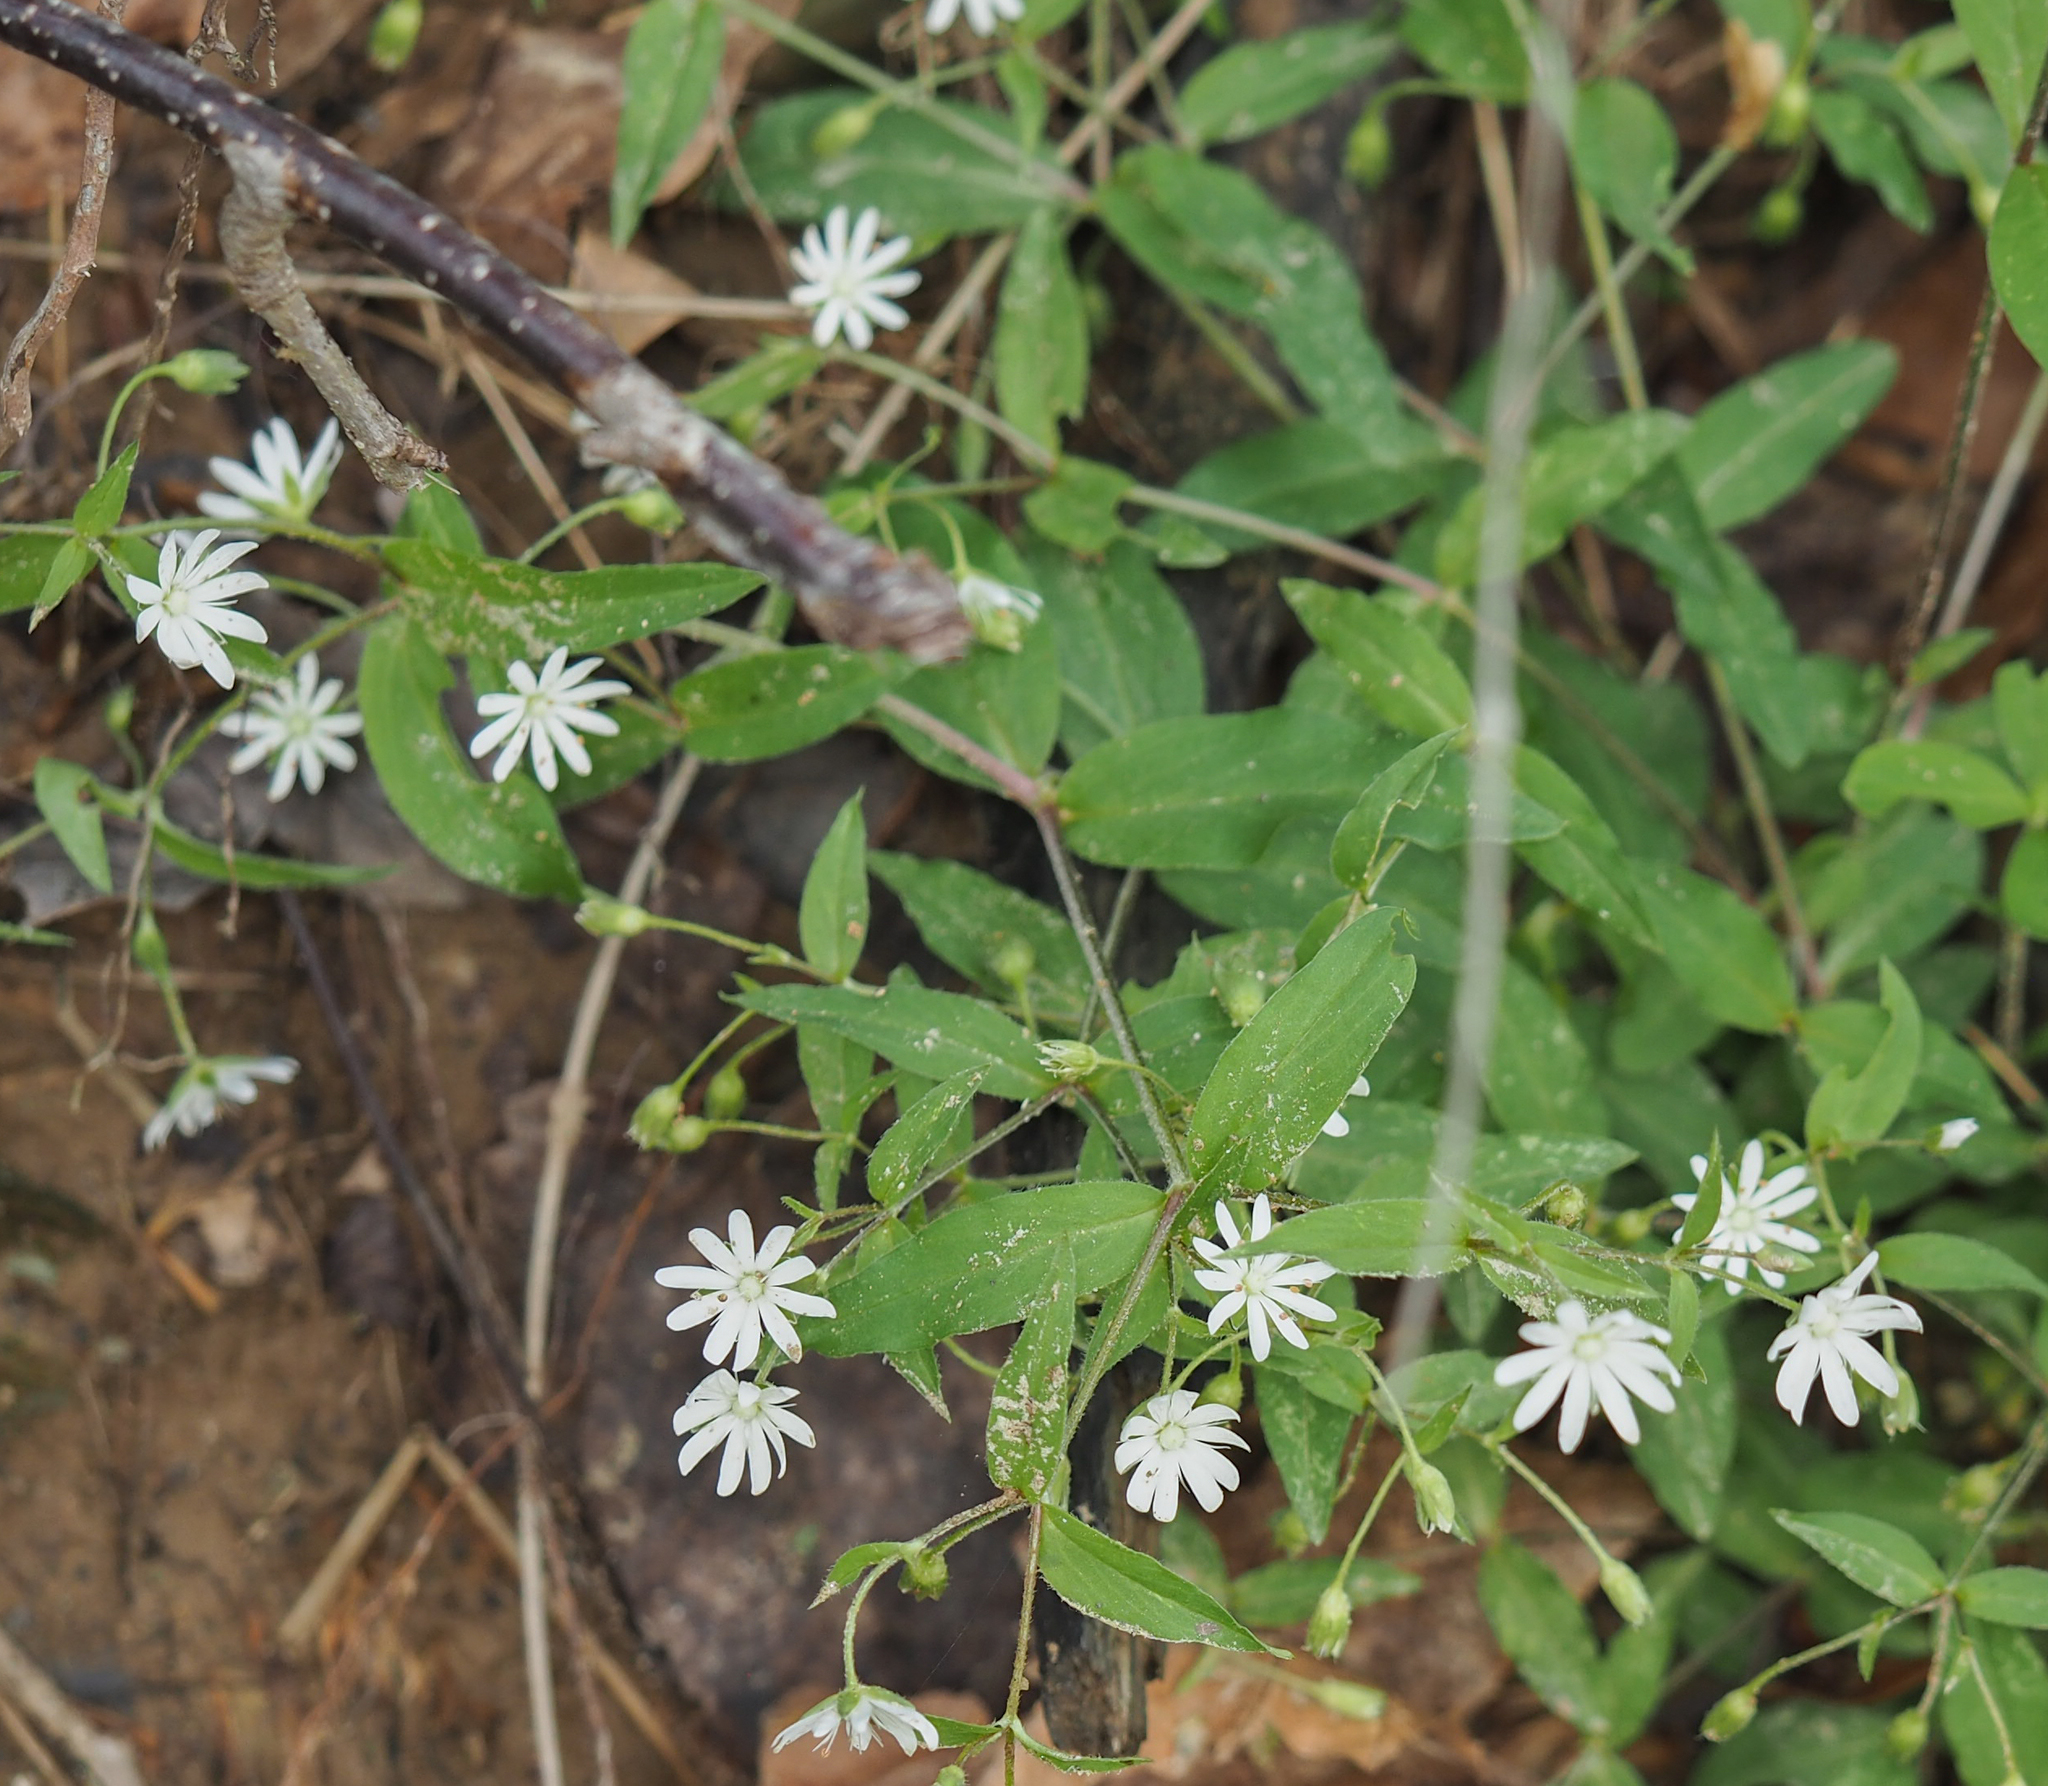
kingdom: Plantae
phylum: Tracheophyta
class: Magnoliopsida
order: Caryophyllales
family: Caryophyllaceae
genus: Stellaria
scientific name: Stellaria pubera
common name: Star chickweed
